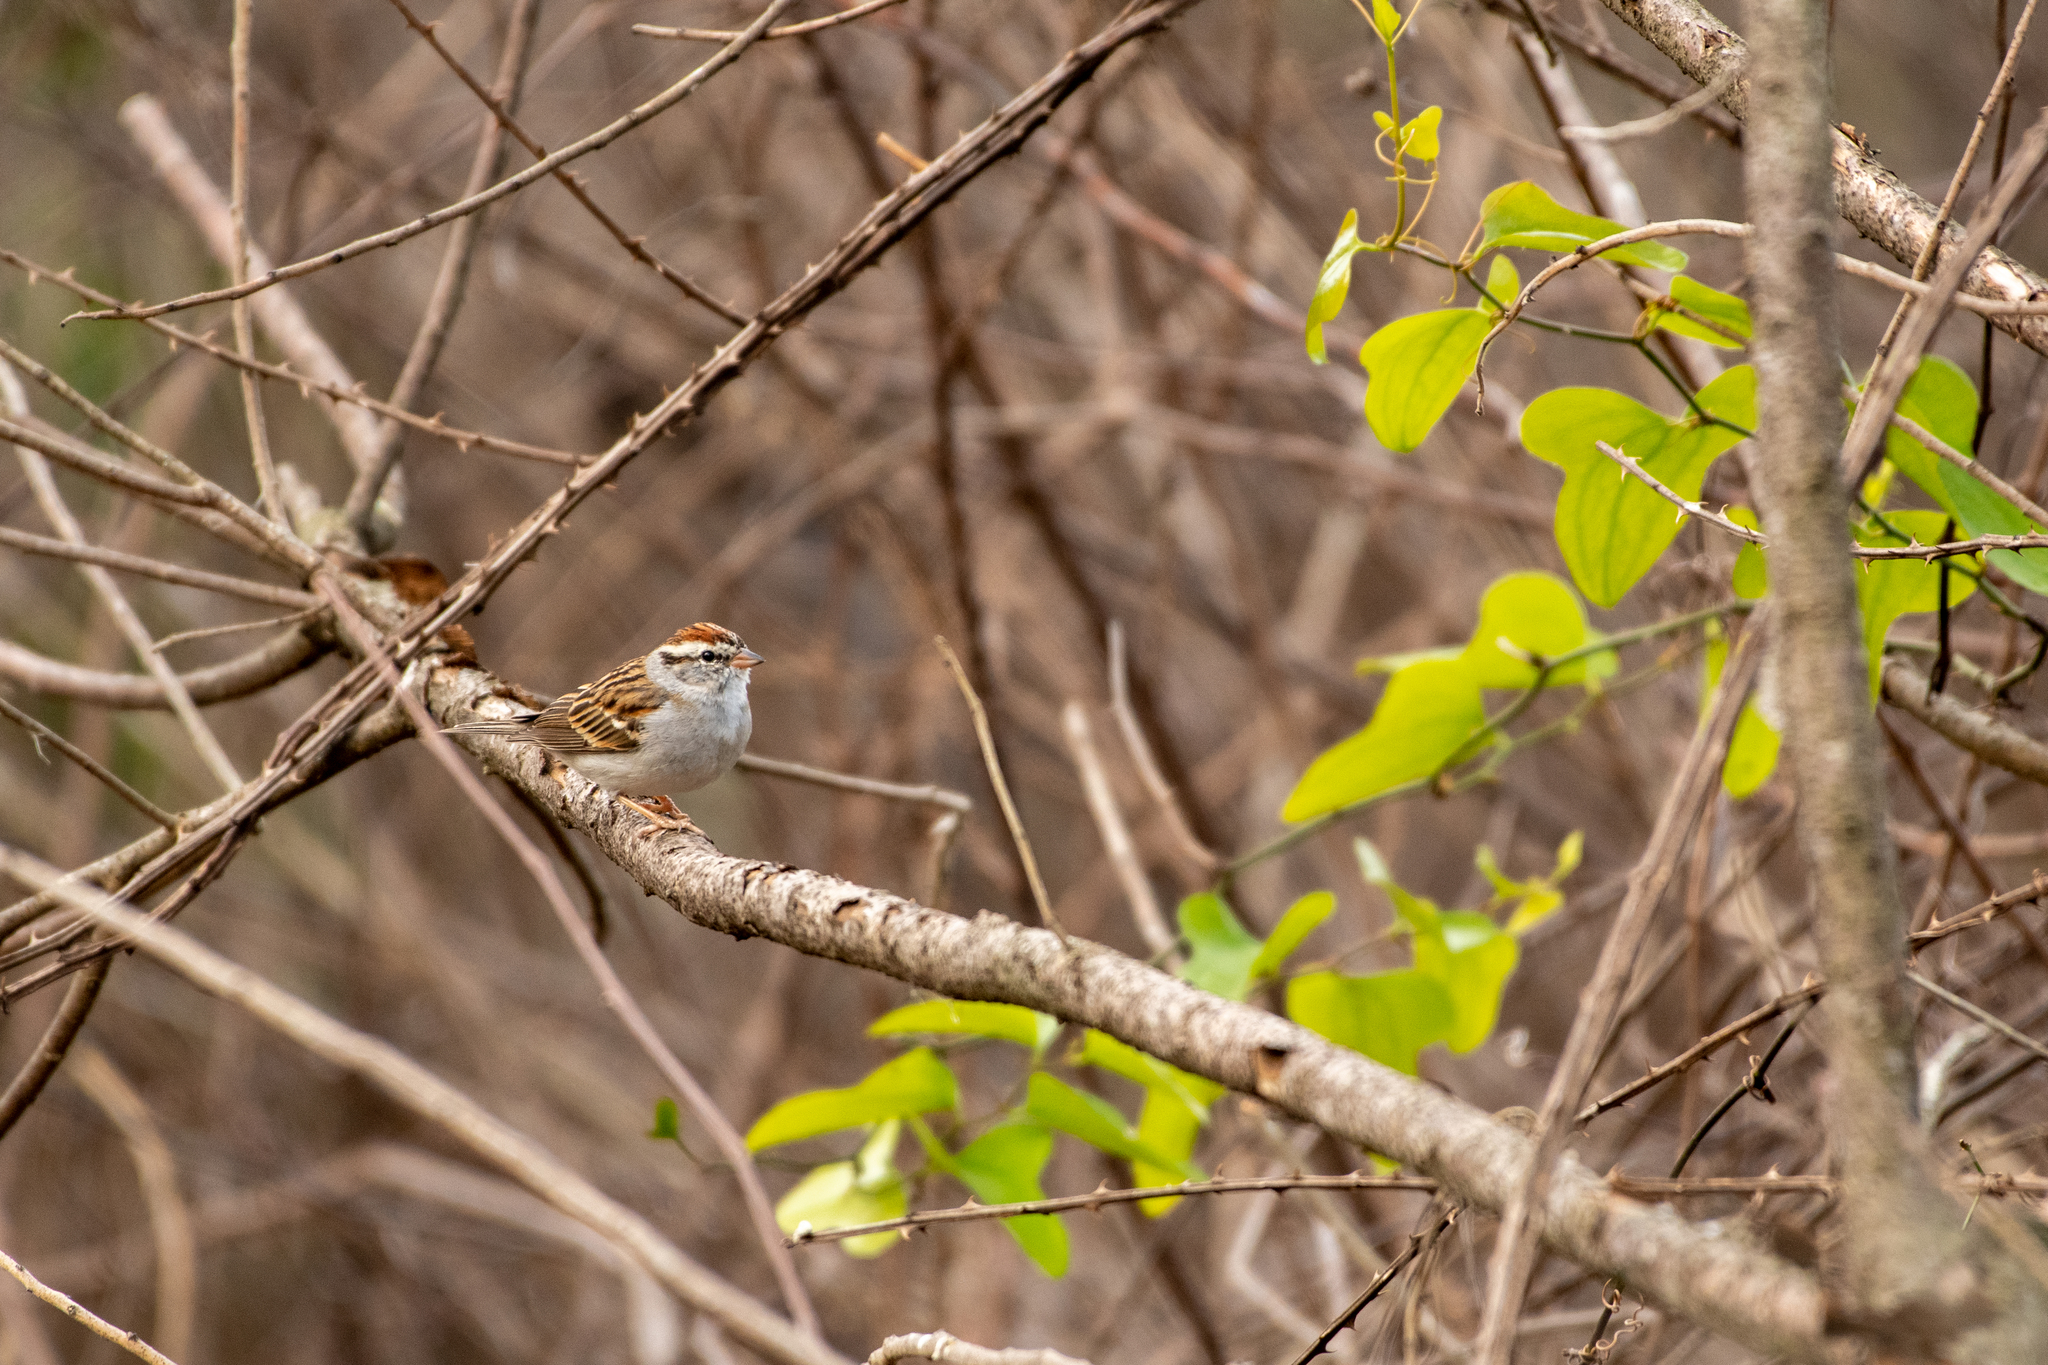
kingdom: Animalia
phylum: Chordata
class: Aves
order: Passeriformes
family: Passerellidae
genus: Spizella
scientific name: Spizella passerina
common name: Chipping sparrow
